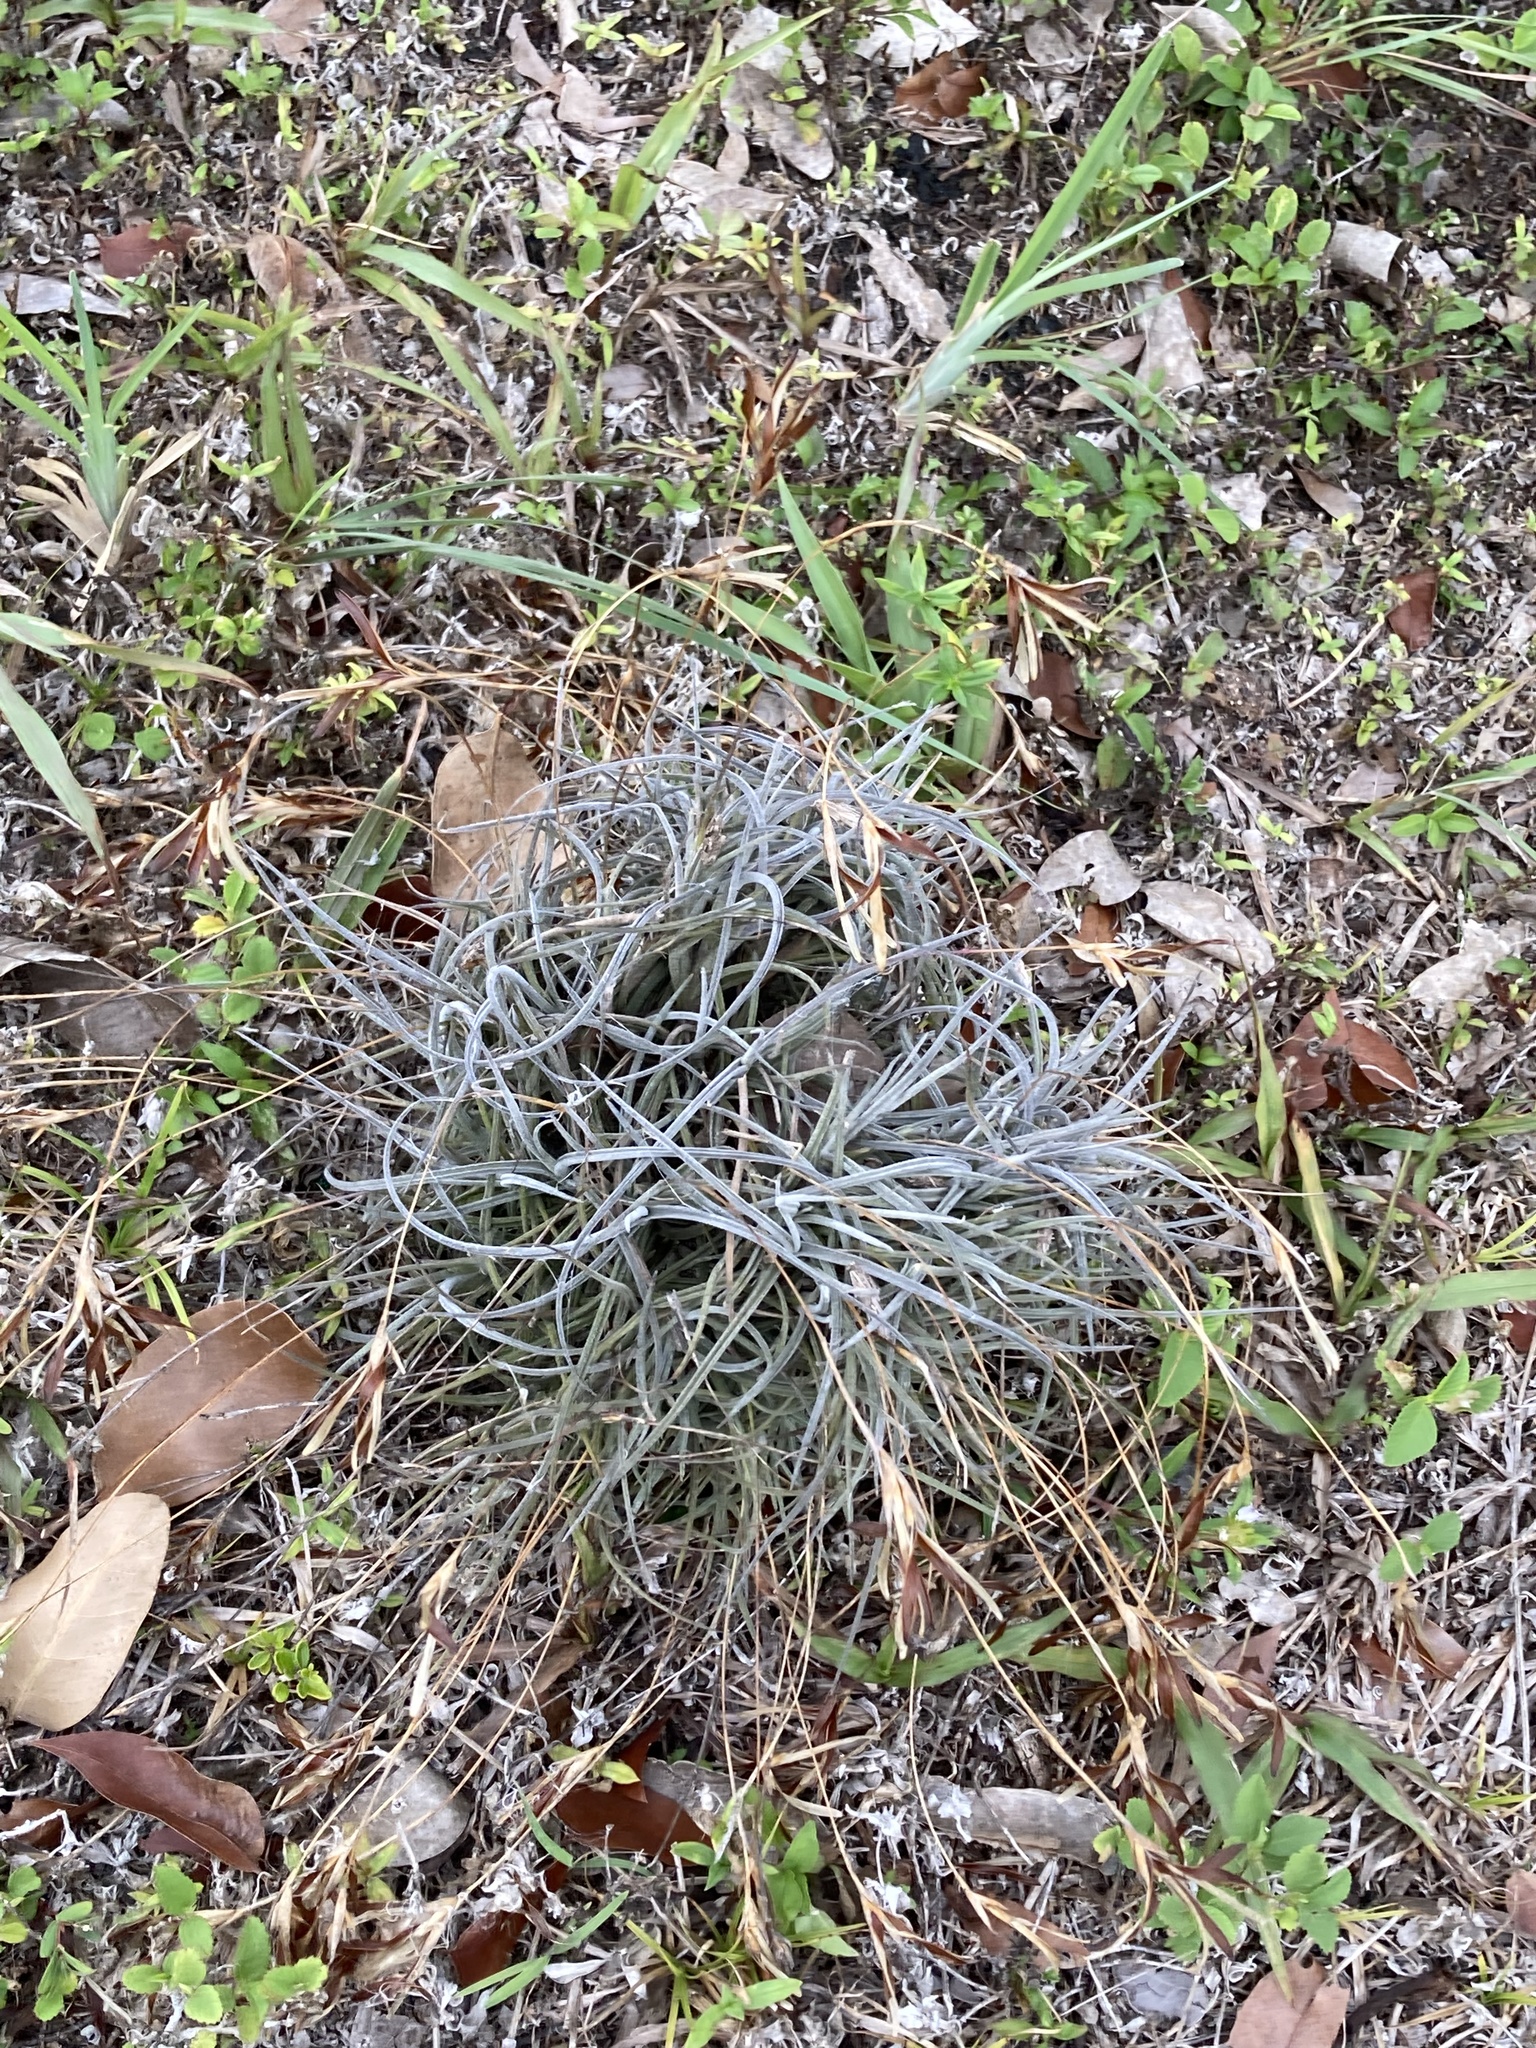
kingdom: Plantae
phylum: Tracheophyta
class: Liliopsida
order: Poales
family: Bromeliaceae
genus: Tillandsia
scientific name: Tillandsia recurvata
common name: Small ballmoss
